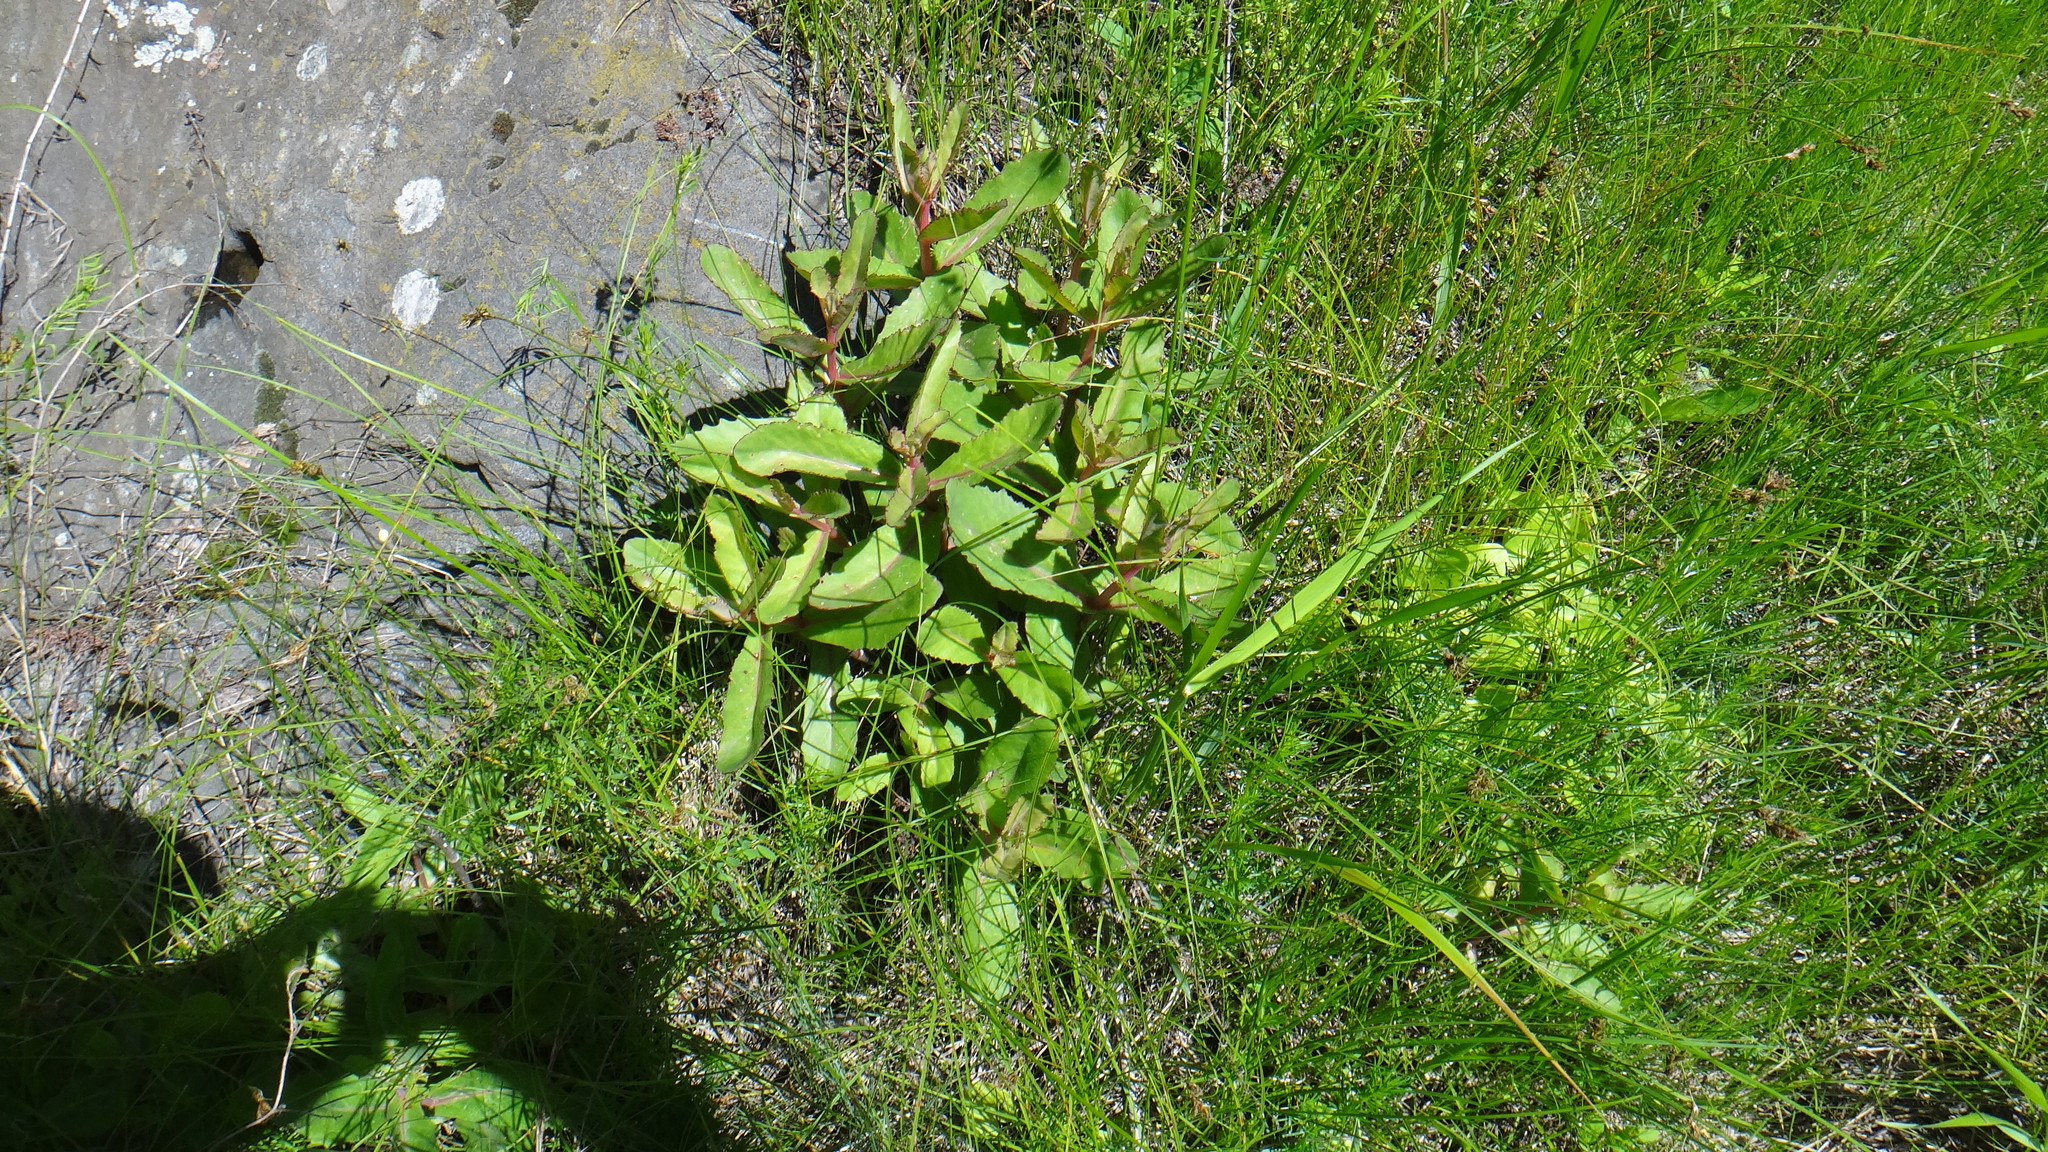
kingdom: Plantae
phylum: Tracheophyta
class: Magnoliopsida
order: Saxifragales
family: Crassulaceae
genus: Hylotelephium
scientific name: Hylotelephium maximum
